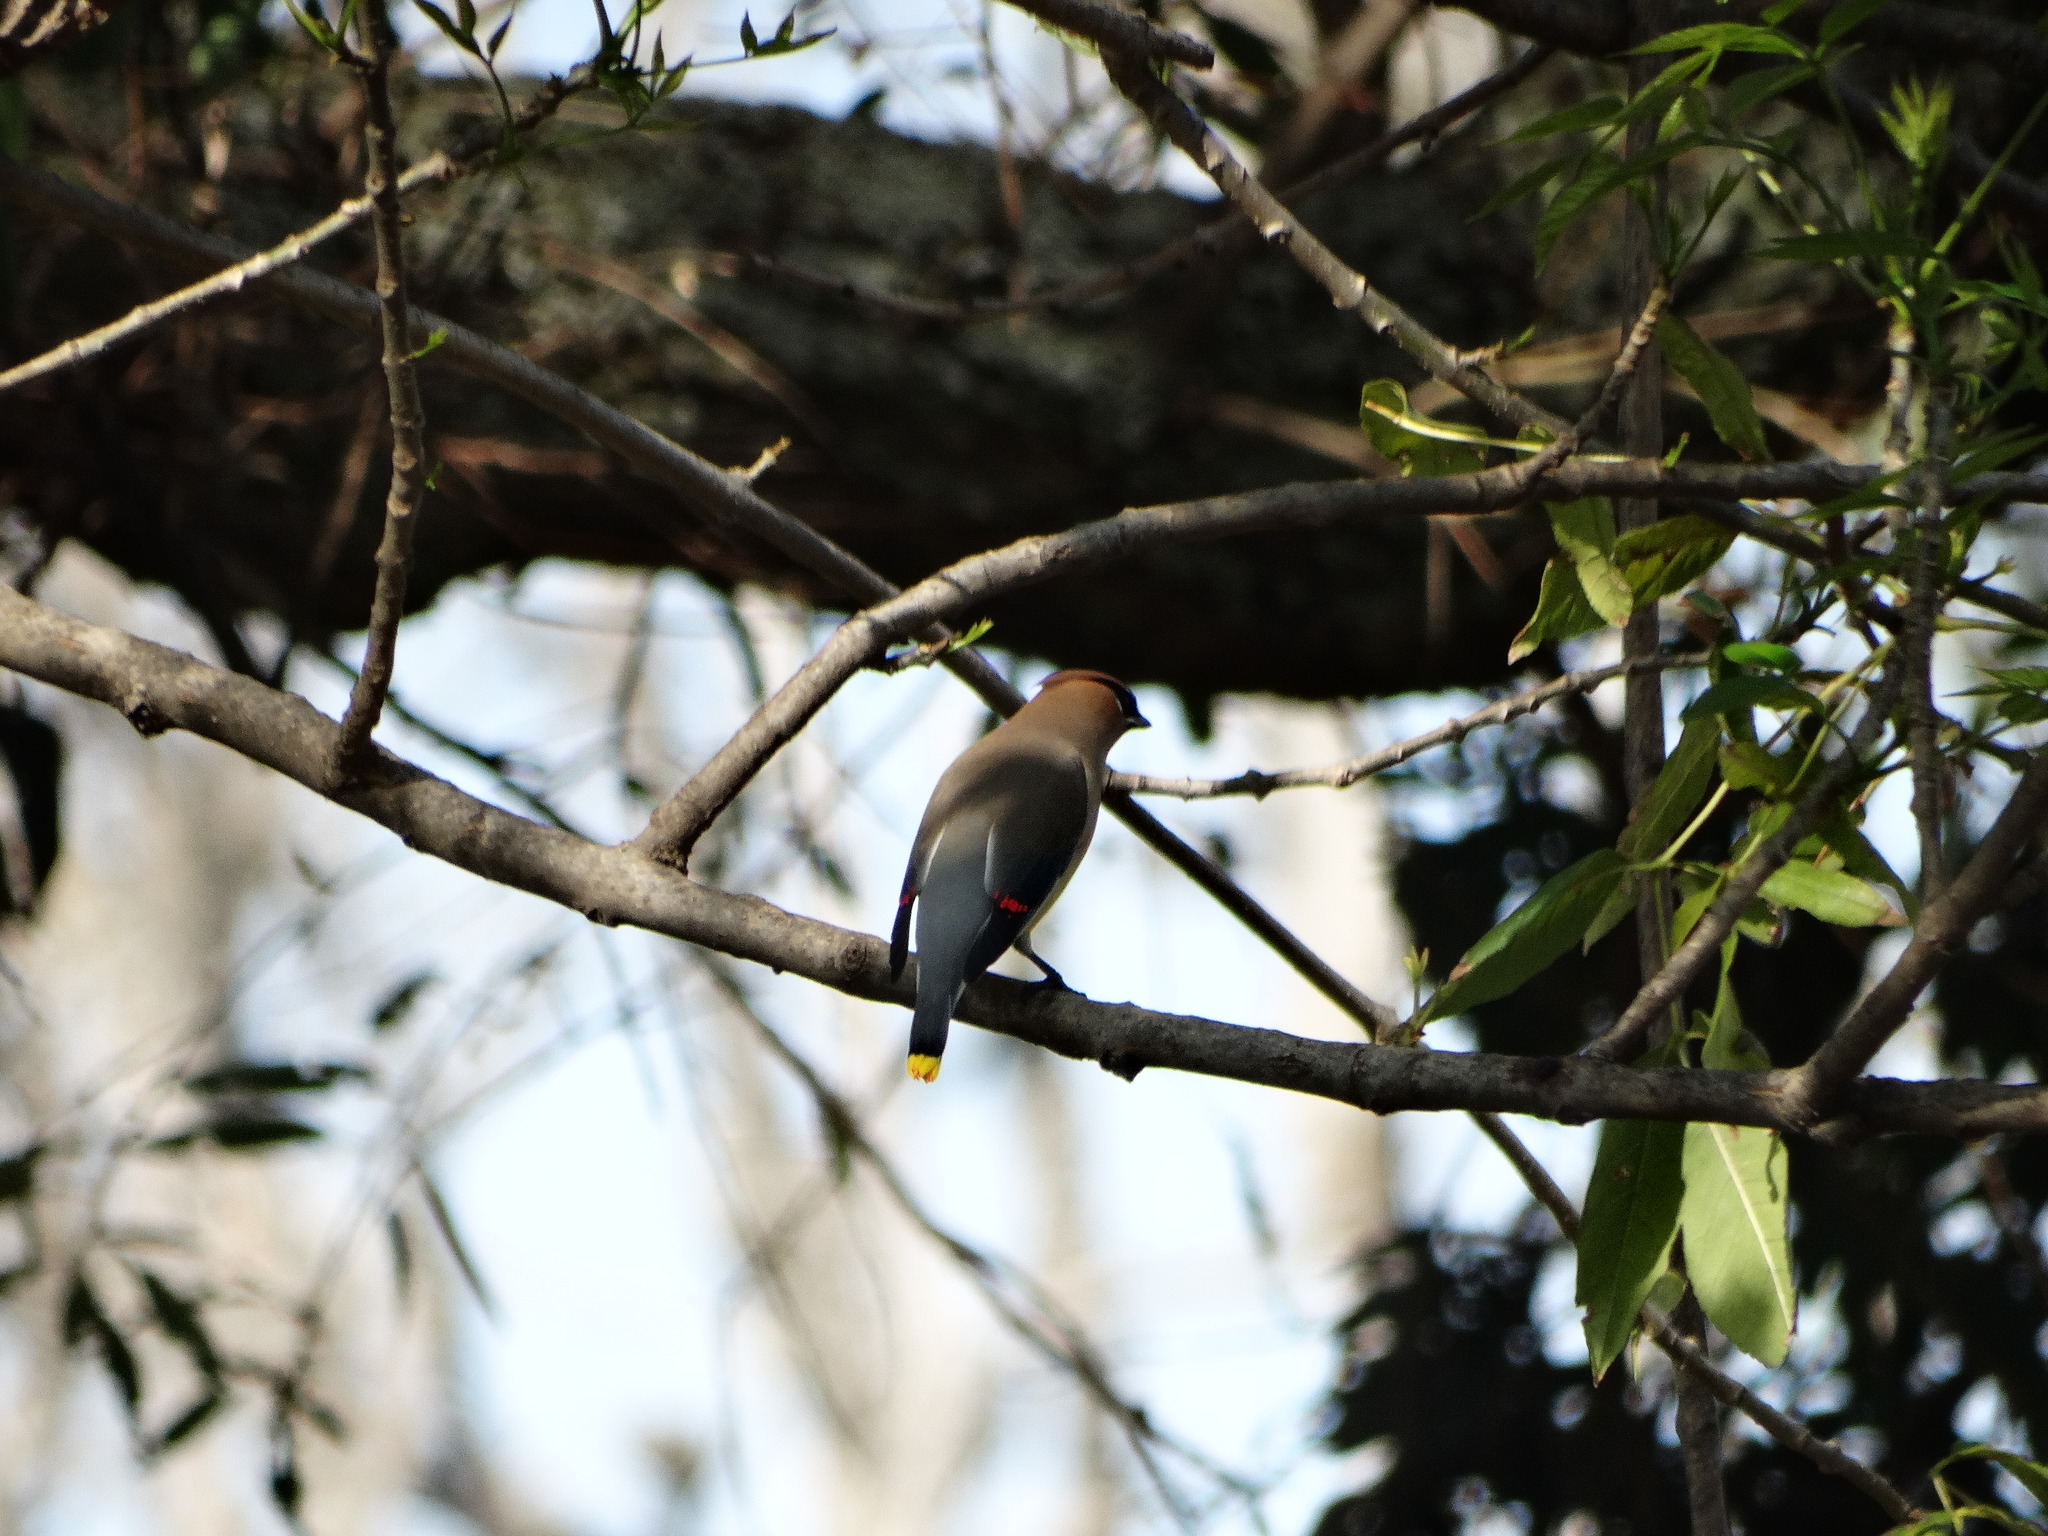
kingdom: Animalia
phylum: Chordata
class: Aves
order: Passeriformes
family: Bombycillidae
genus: Bombycilla
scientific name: Bombycilla cedrorum
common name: Cedar waxwing
